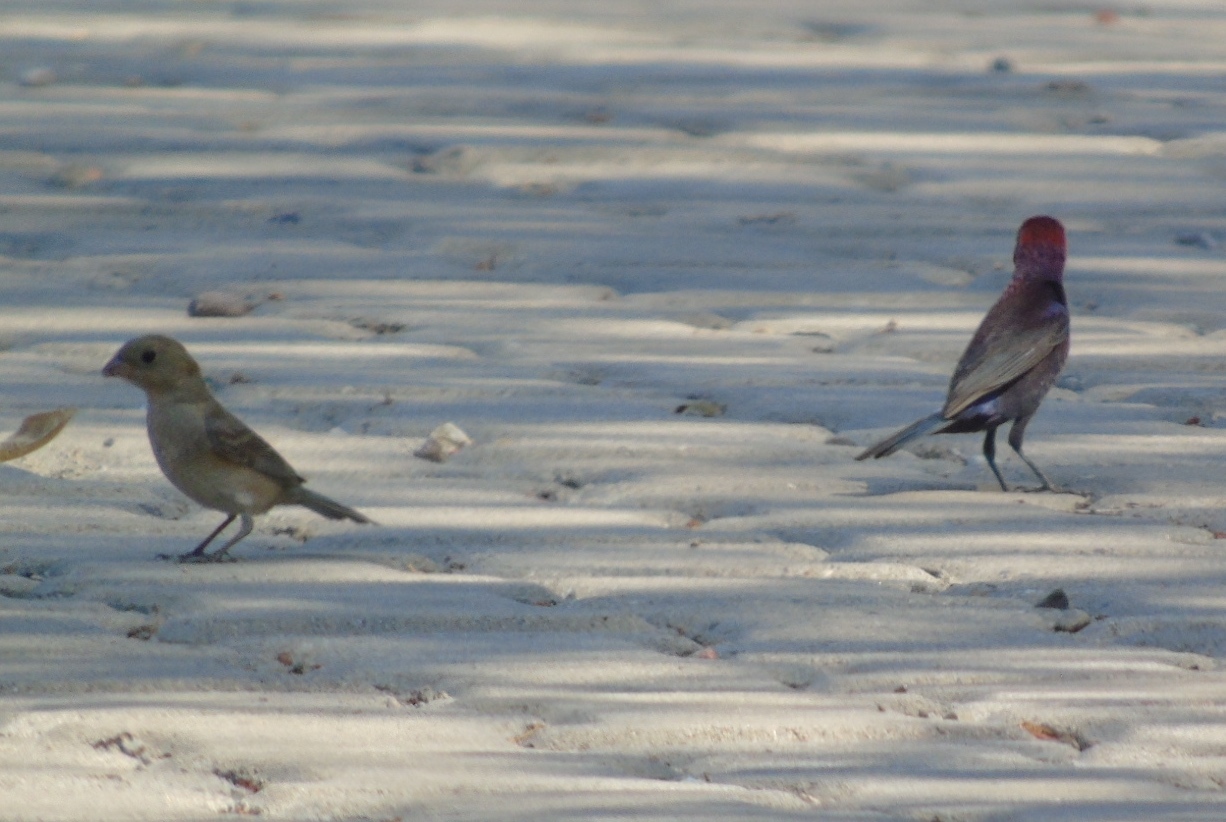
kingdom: Animalia
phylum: Chordata
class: Aves
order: Passeriformes
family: Cardinalidae
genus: Passerina
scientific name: Passerina versicolor
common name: Varied bunting
